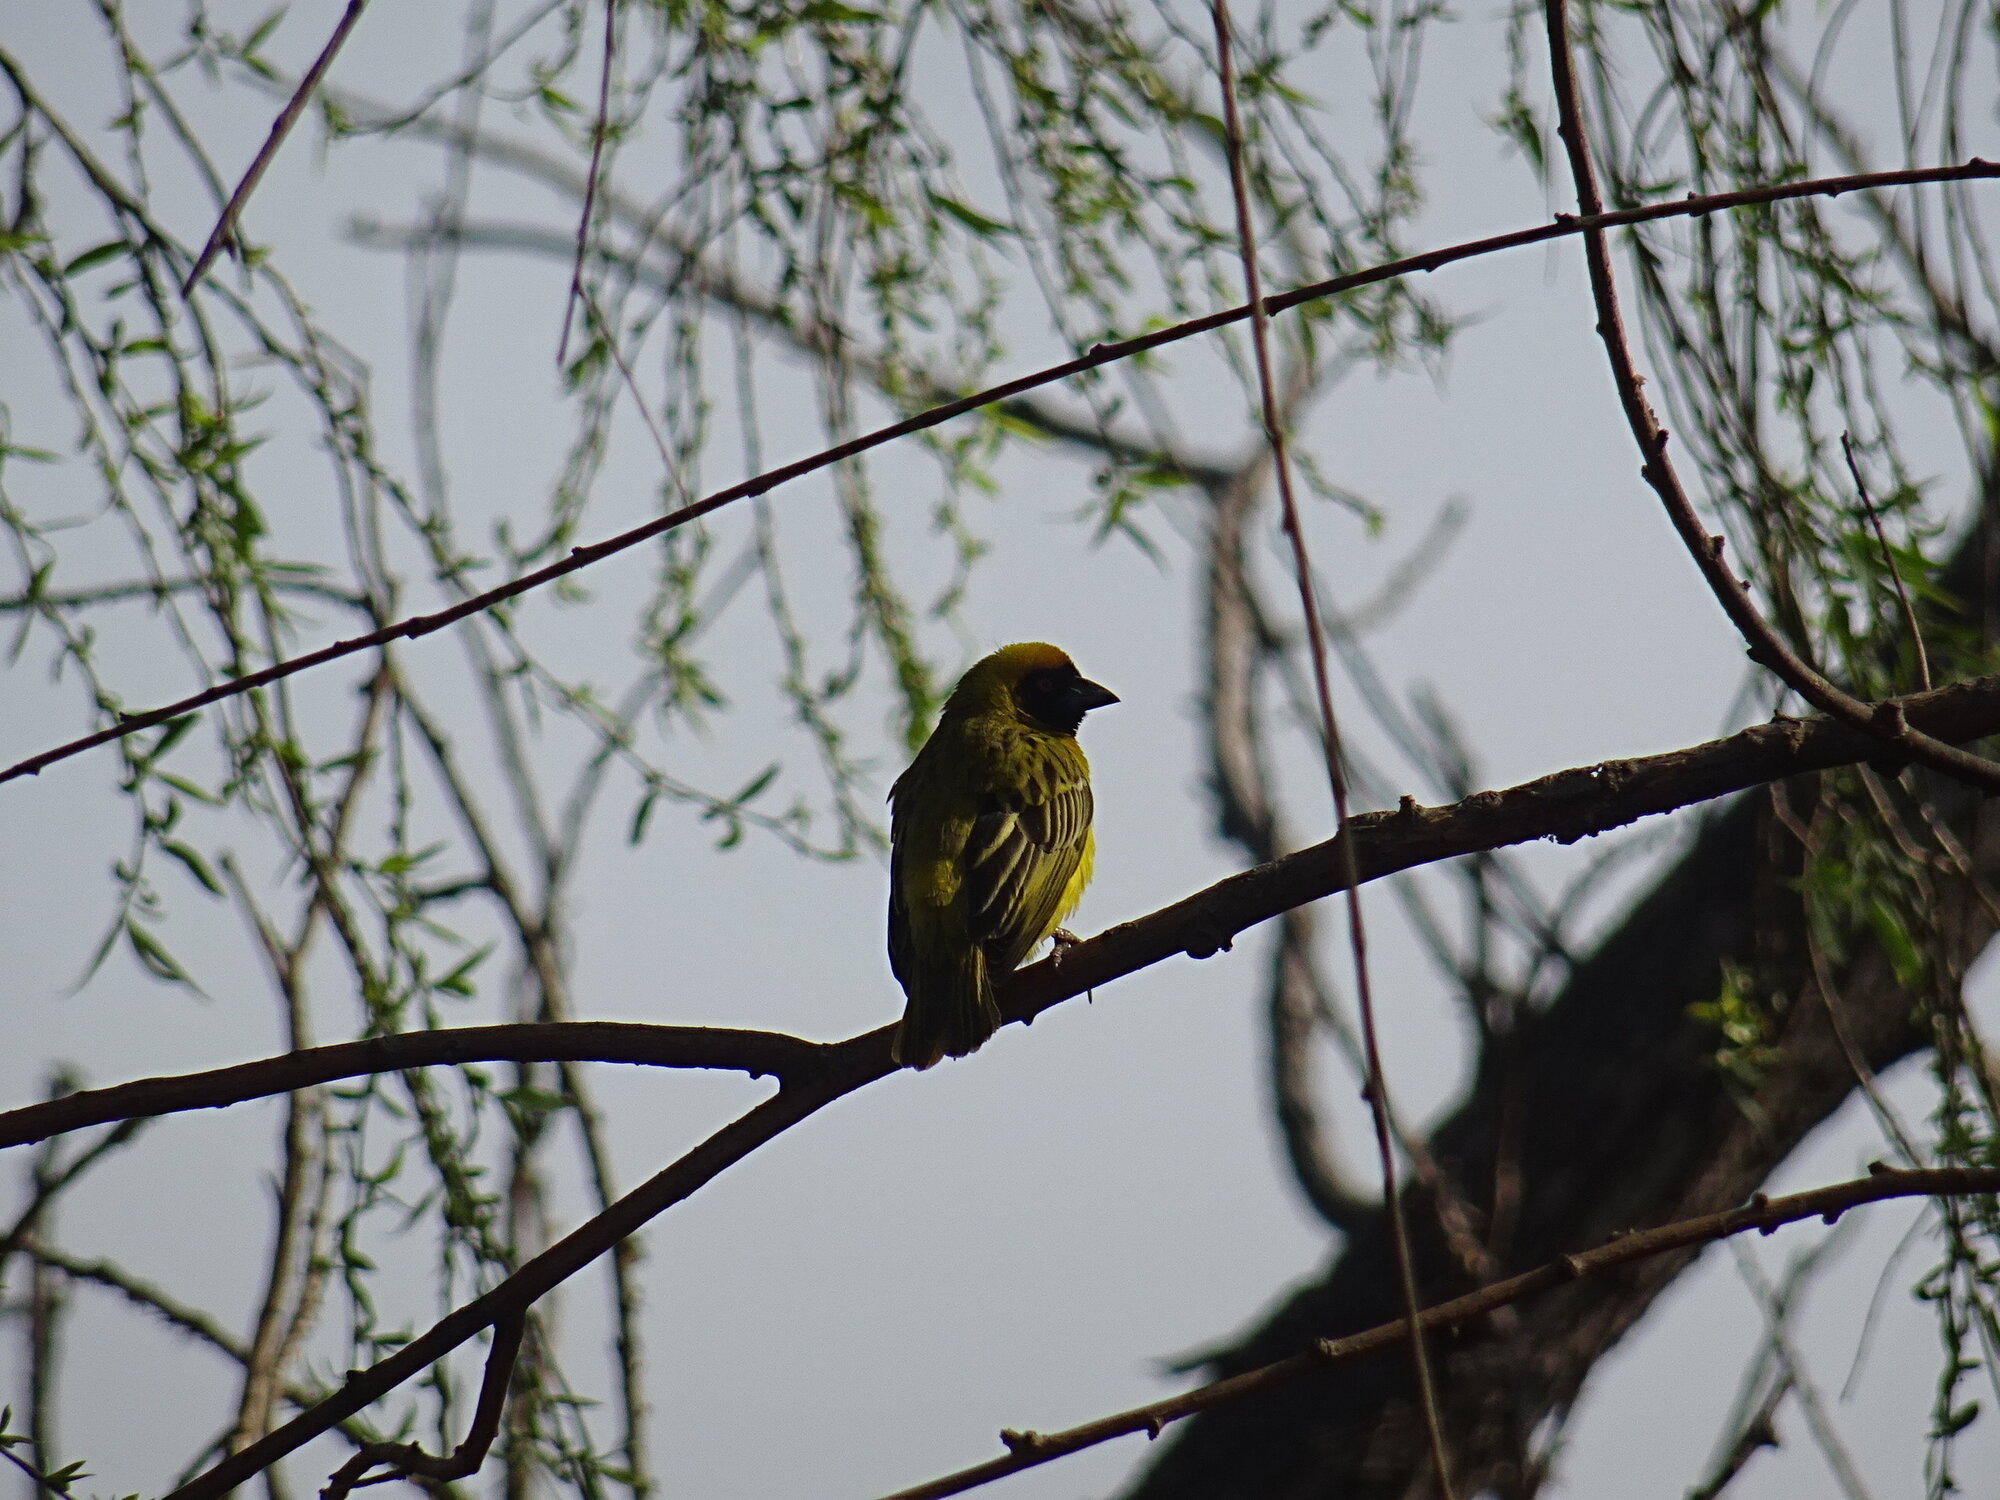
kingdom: Animalia
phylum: Chordata
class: Aves
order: Passeriformes
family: Ploceidae
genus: Ploceus
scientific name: Ploceus velatus
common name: Southern masked weaver
